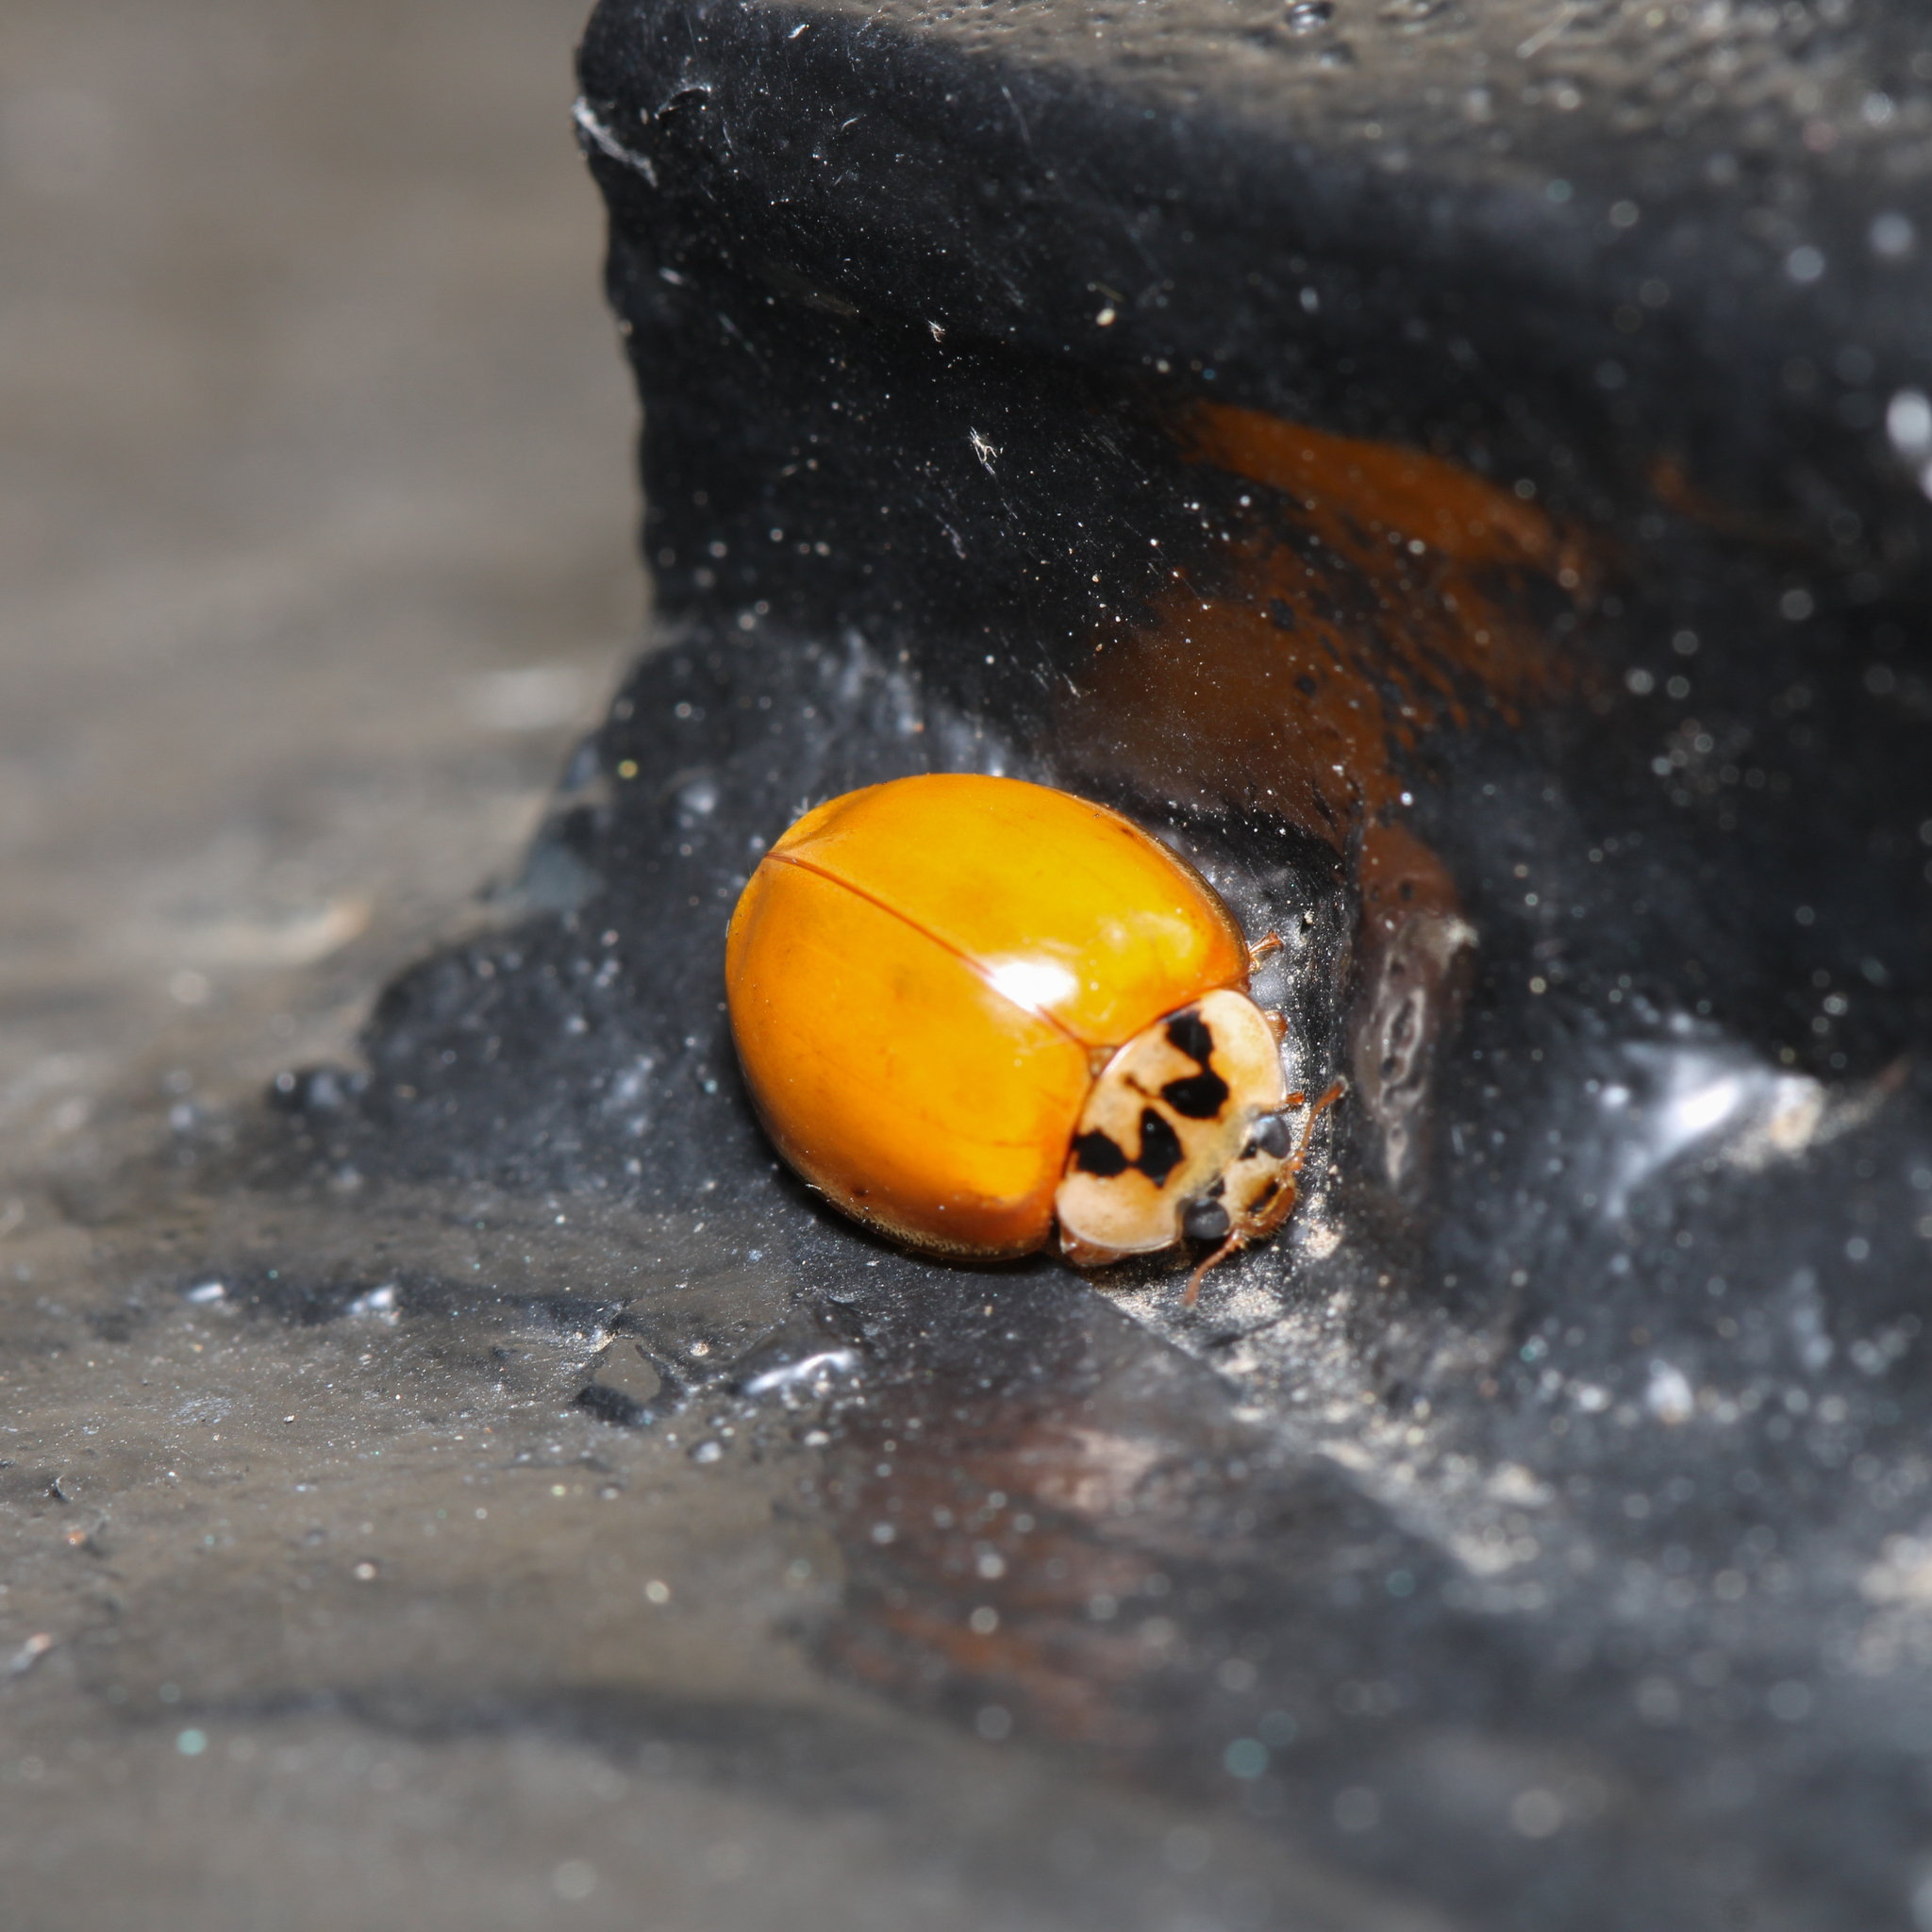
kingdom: Animalia
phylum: Arthropoda
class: Insecta
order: Coleoptera
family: Coccinellidae
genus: Harmonia
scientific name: Harmonia axyridis
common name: Harlequin ladybird
